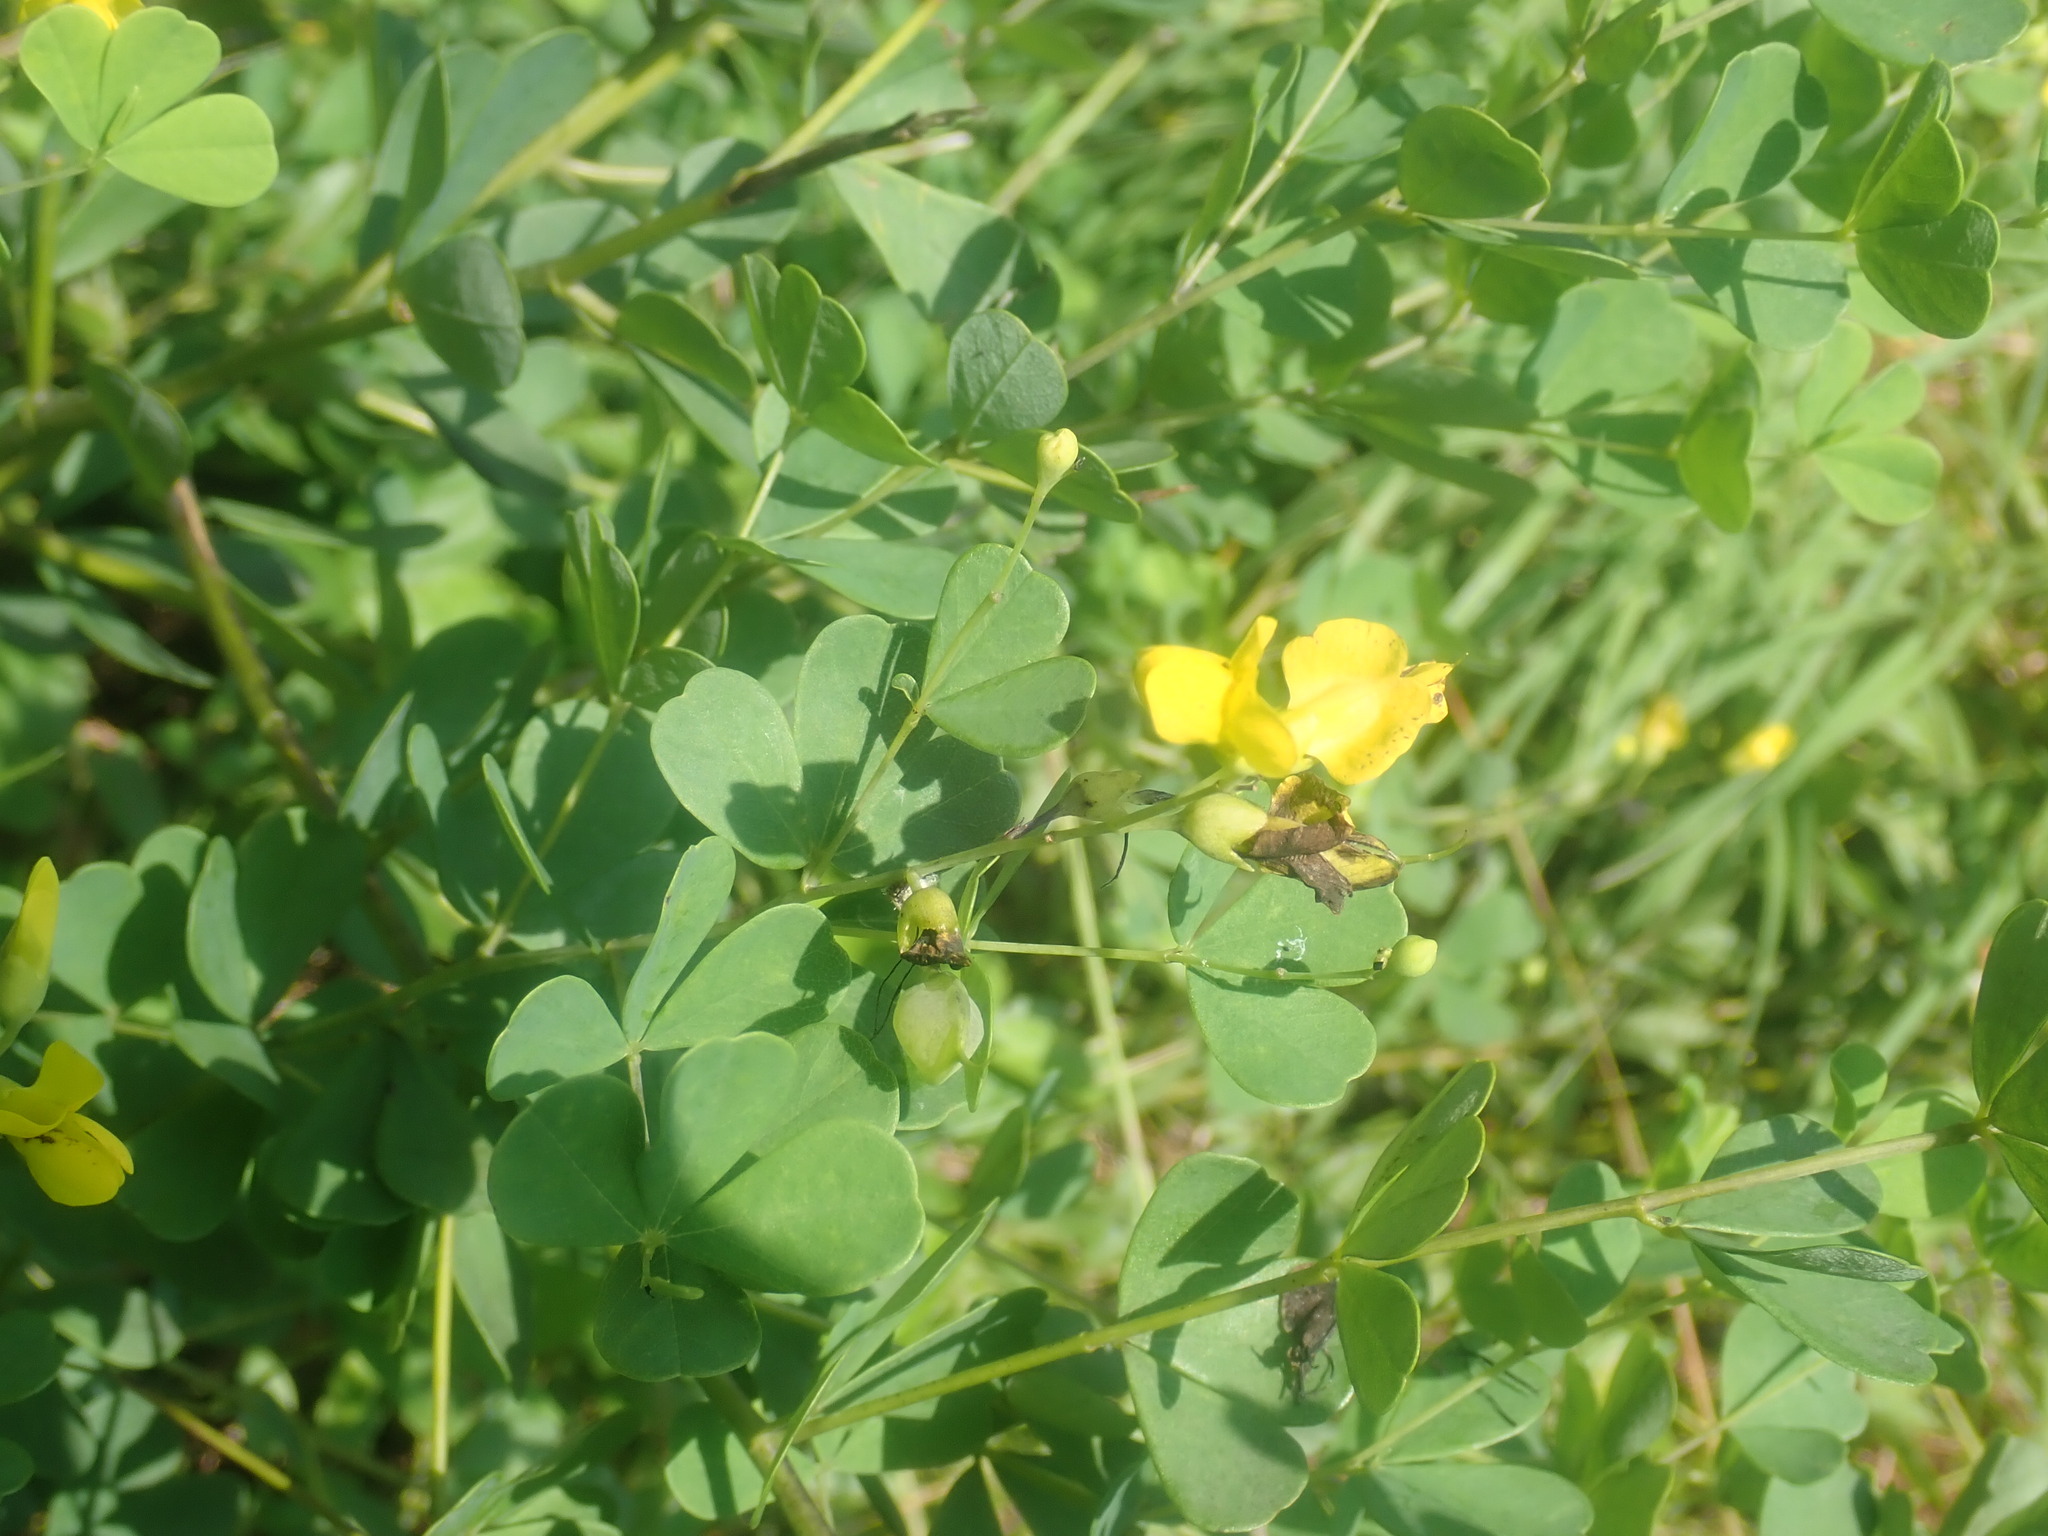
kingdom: Plantae
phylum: Tracheophyta
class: Magnoliopsida
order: Fabales
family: Fabaceae
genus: Baptisia
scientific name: Baptisia tinctoria
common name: Wild indigo
